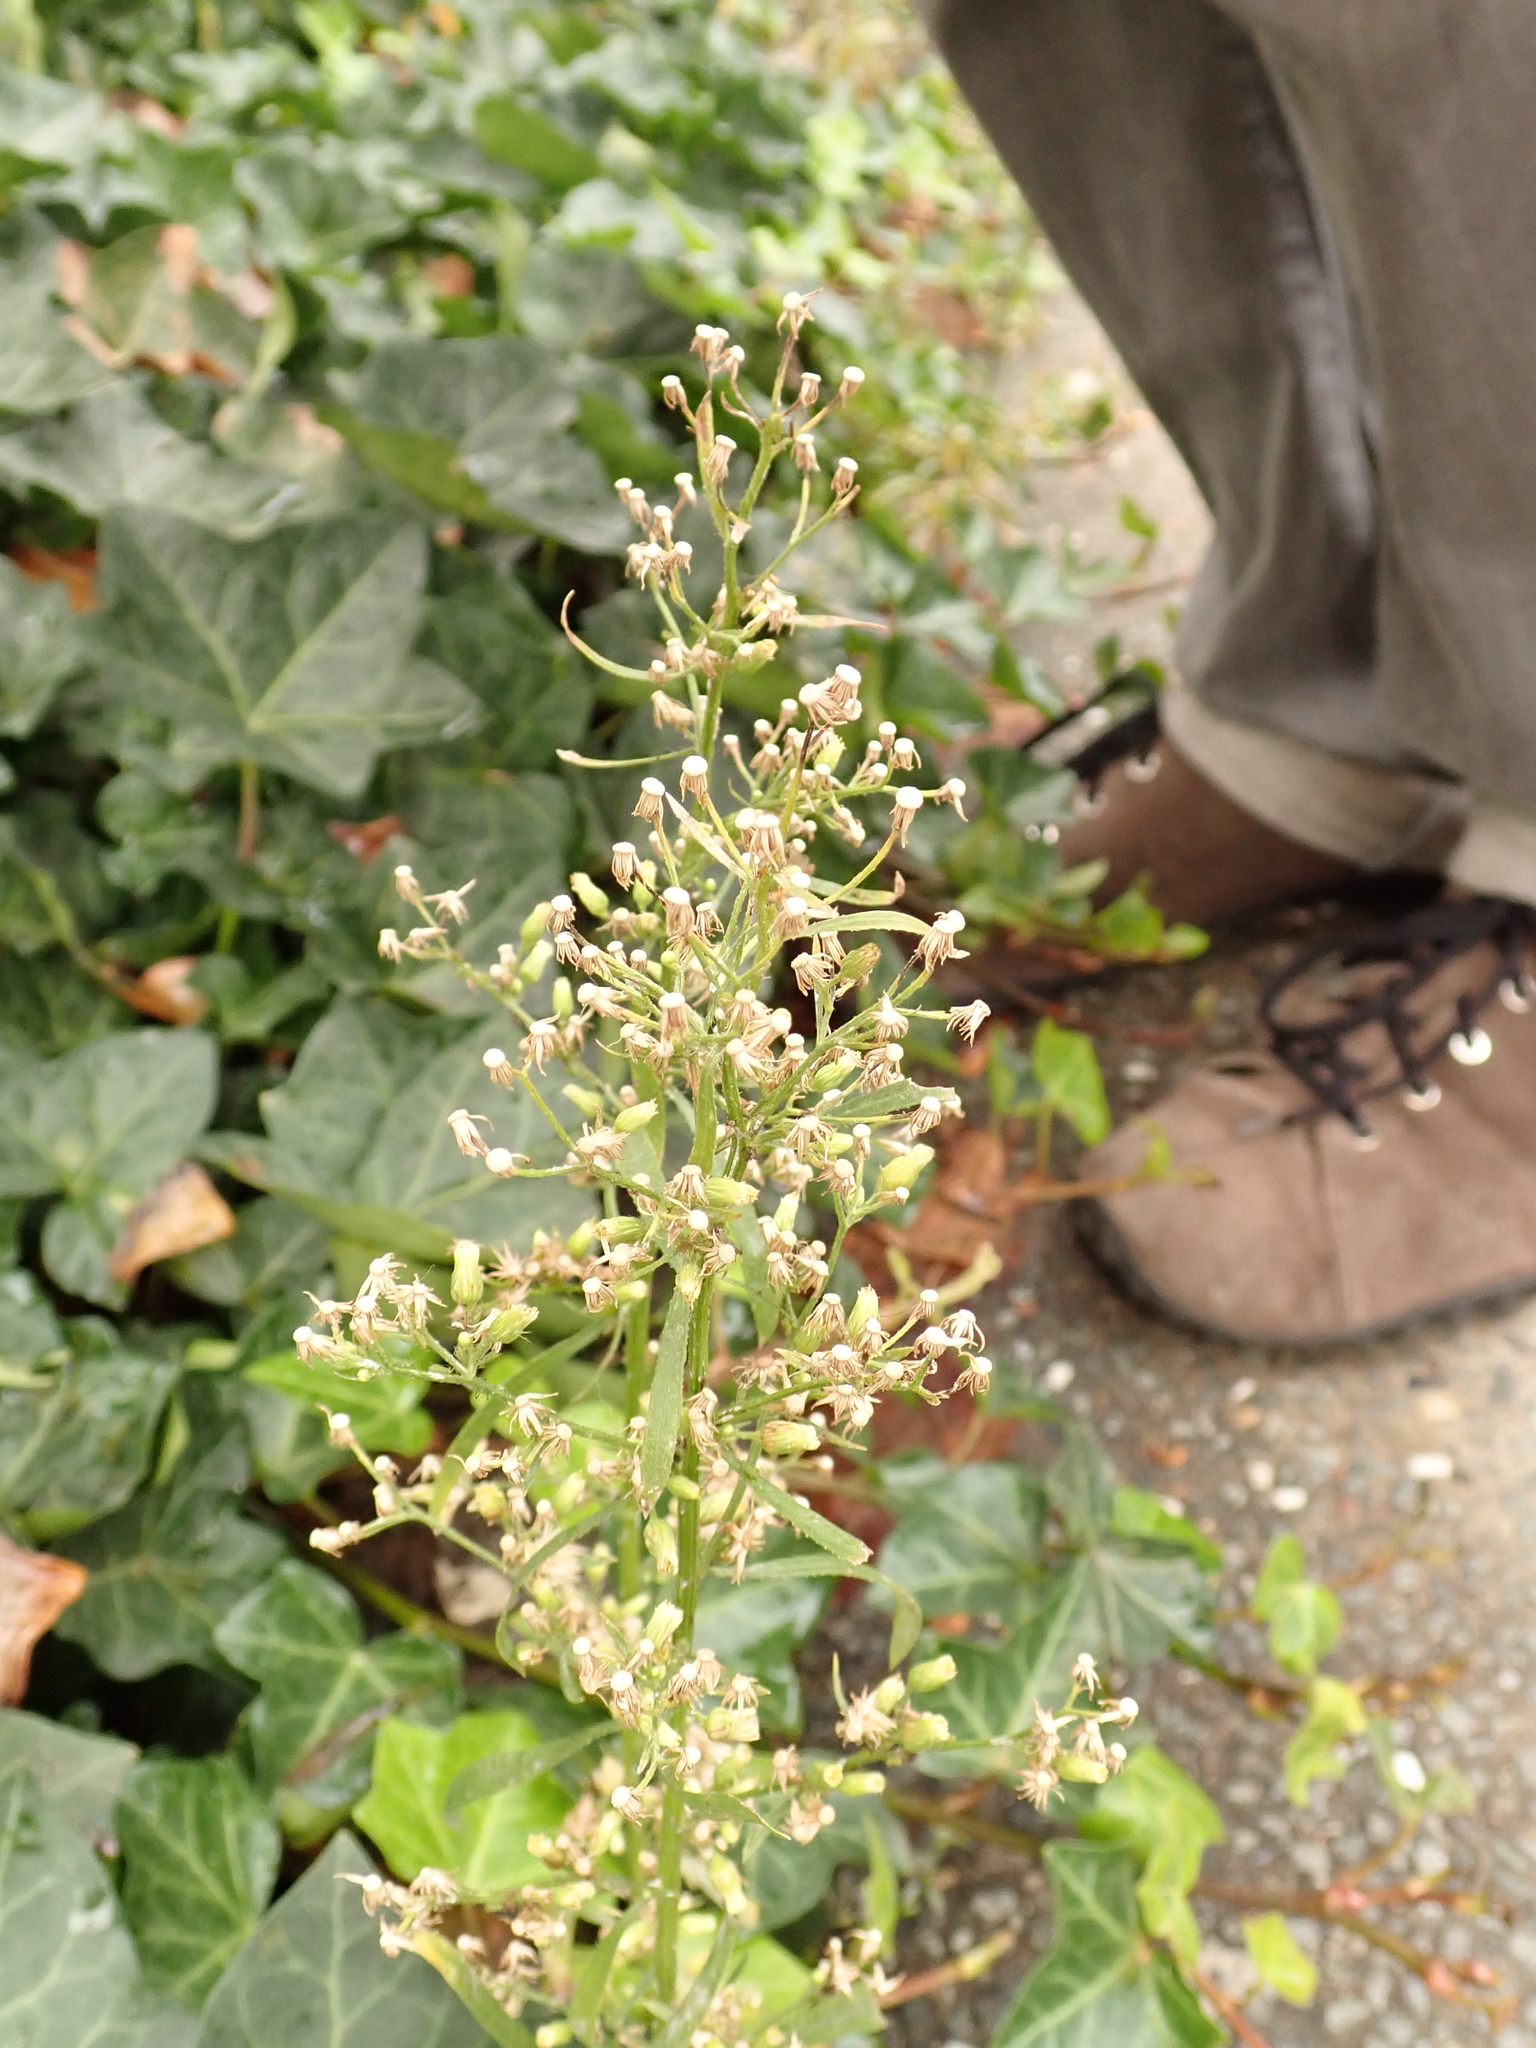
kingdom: Plantae
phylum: Tracheophyta
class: Magnoliopsida
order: Asterales
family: Asteraceae
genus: Erigeron
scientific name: Erigeron canadensis
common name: Canadian fleabane
